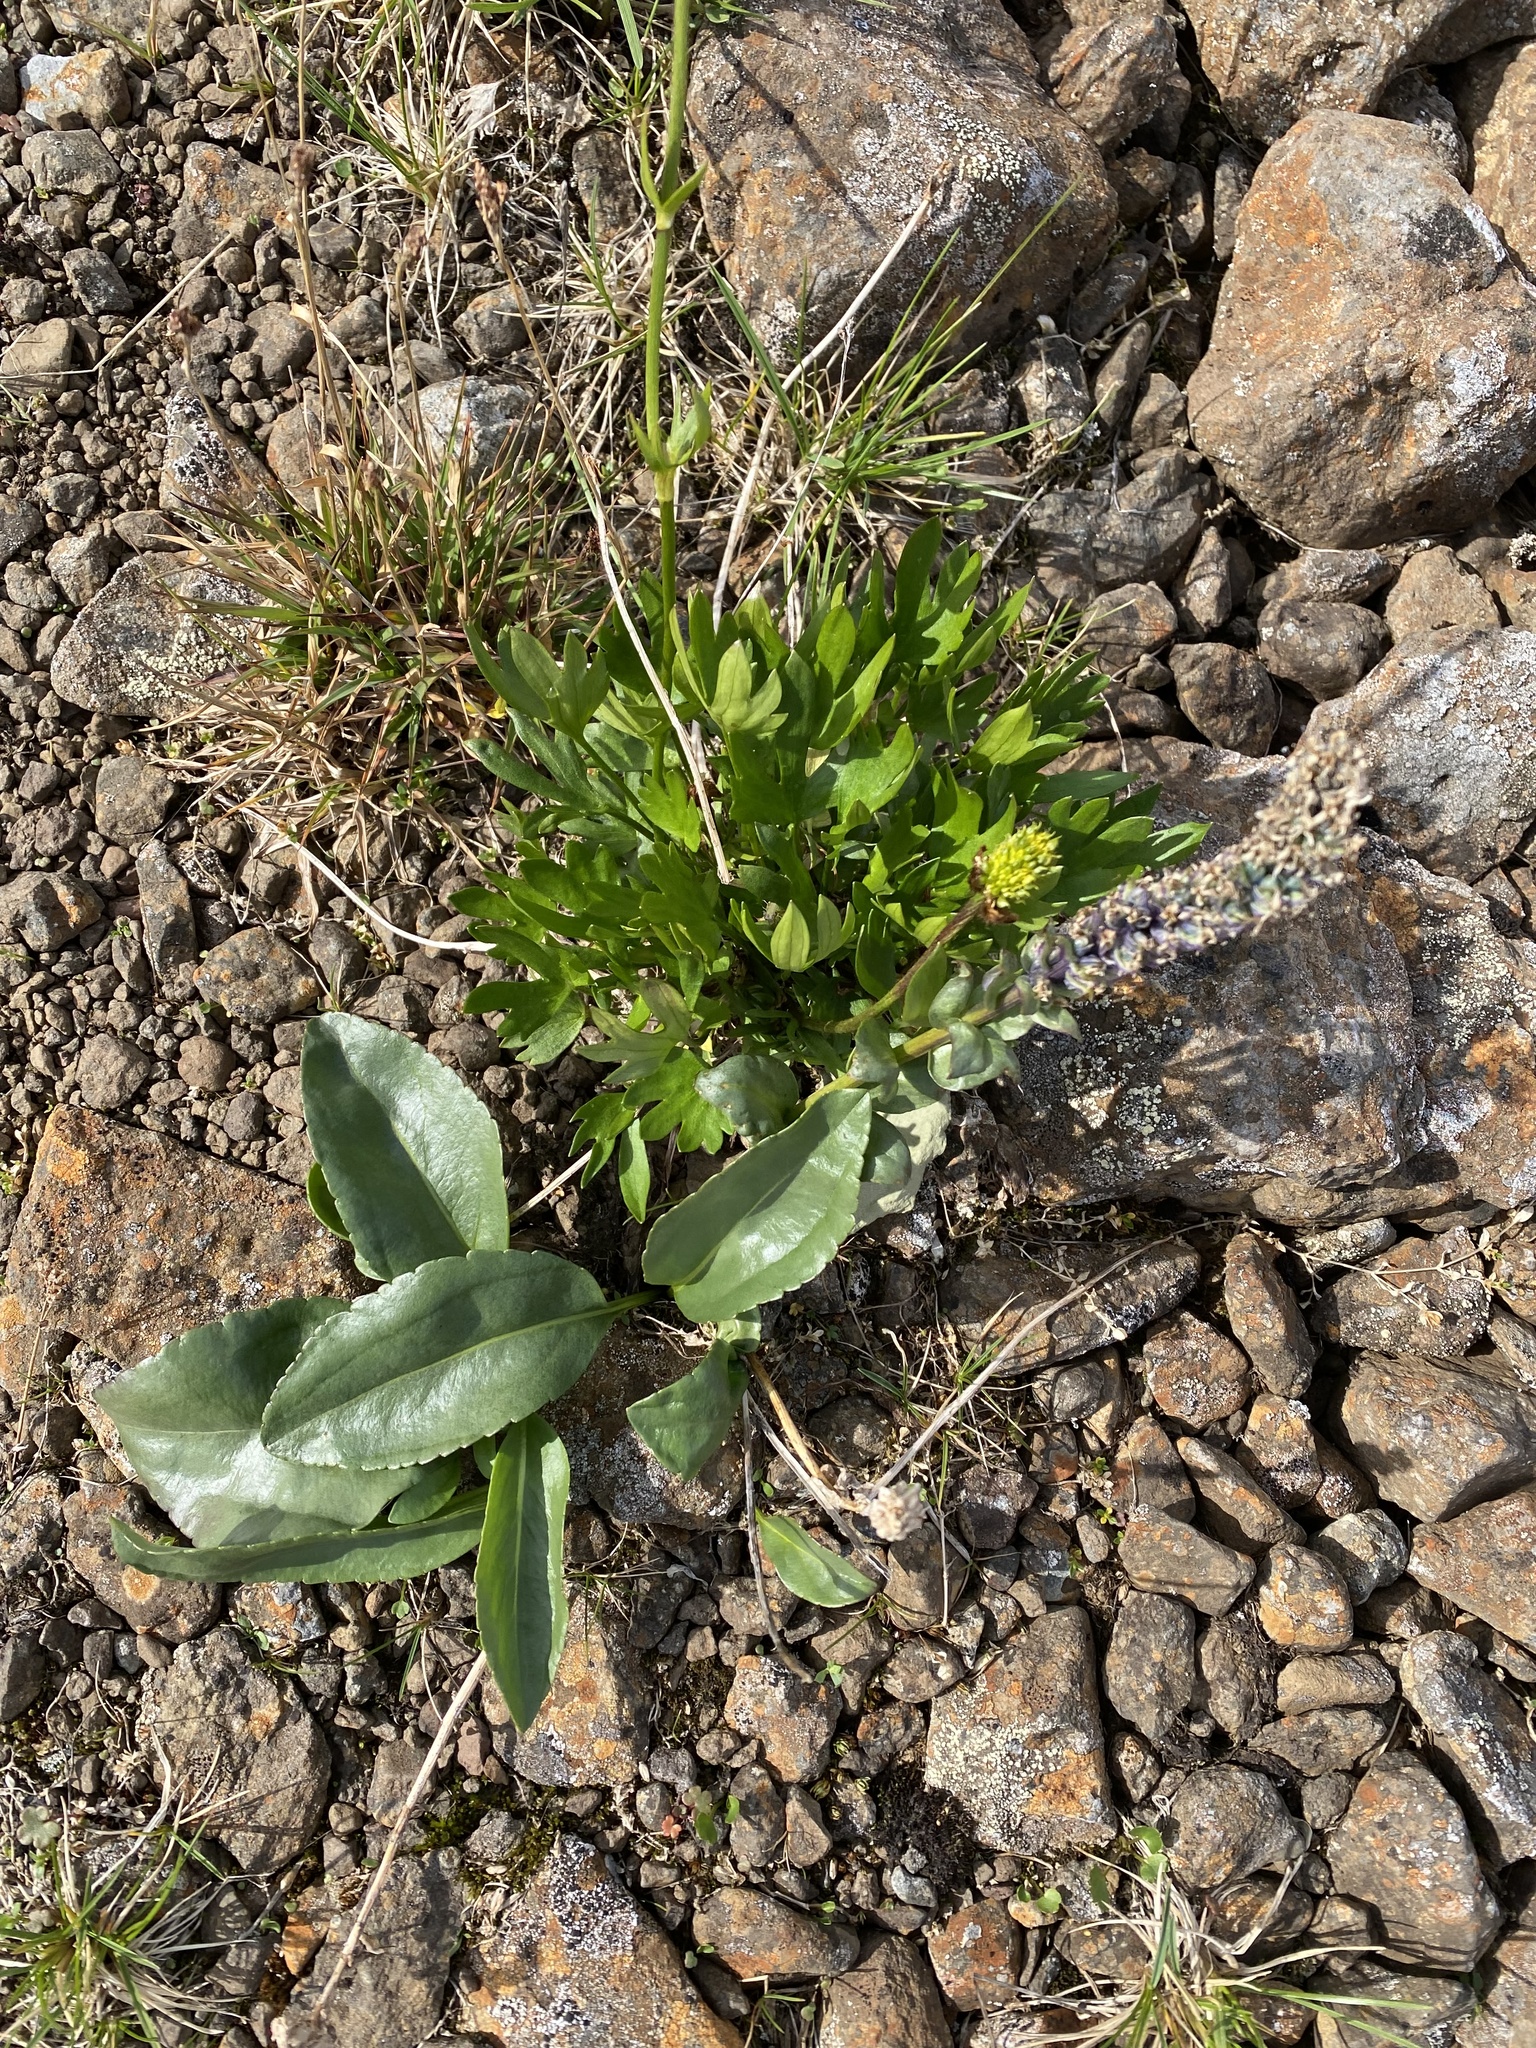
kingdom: Plantae
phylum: Tracheophyta
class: Magnoliopsida
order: Ranunculales
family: Ranunculaceae
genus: Ranunculus
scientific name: Ranunculus sulphureus
